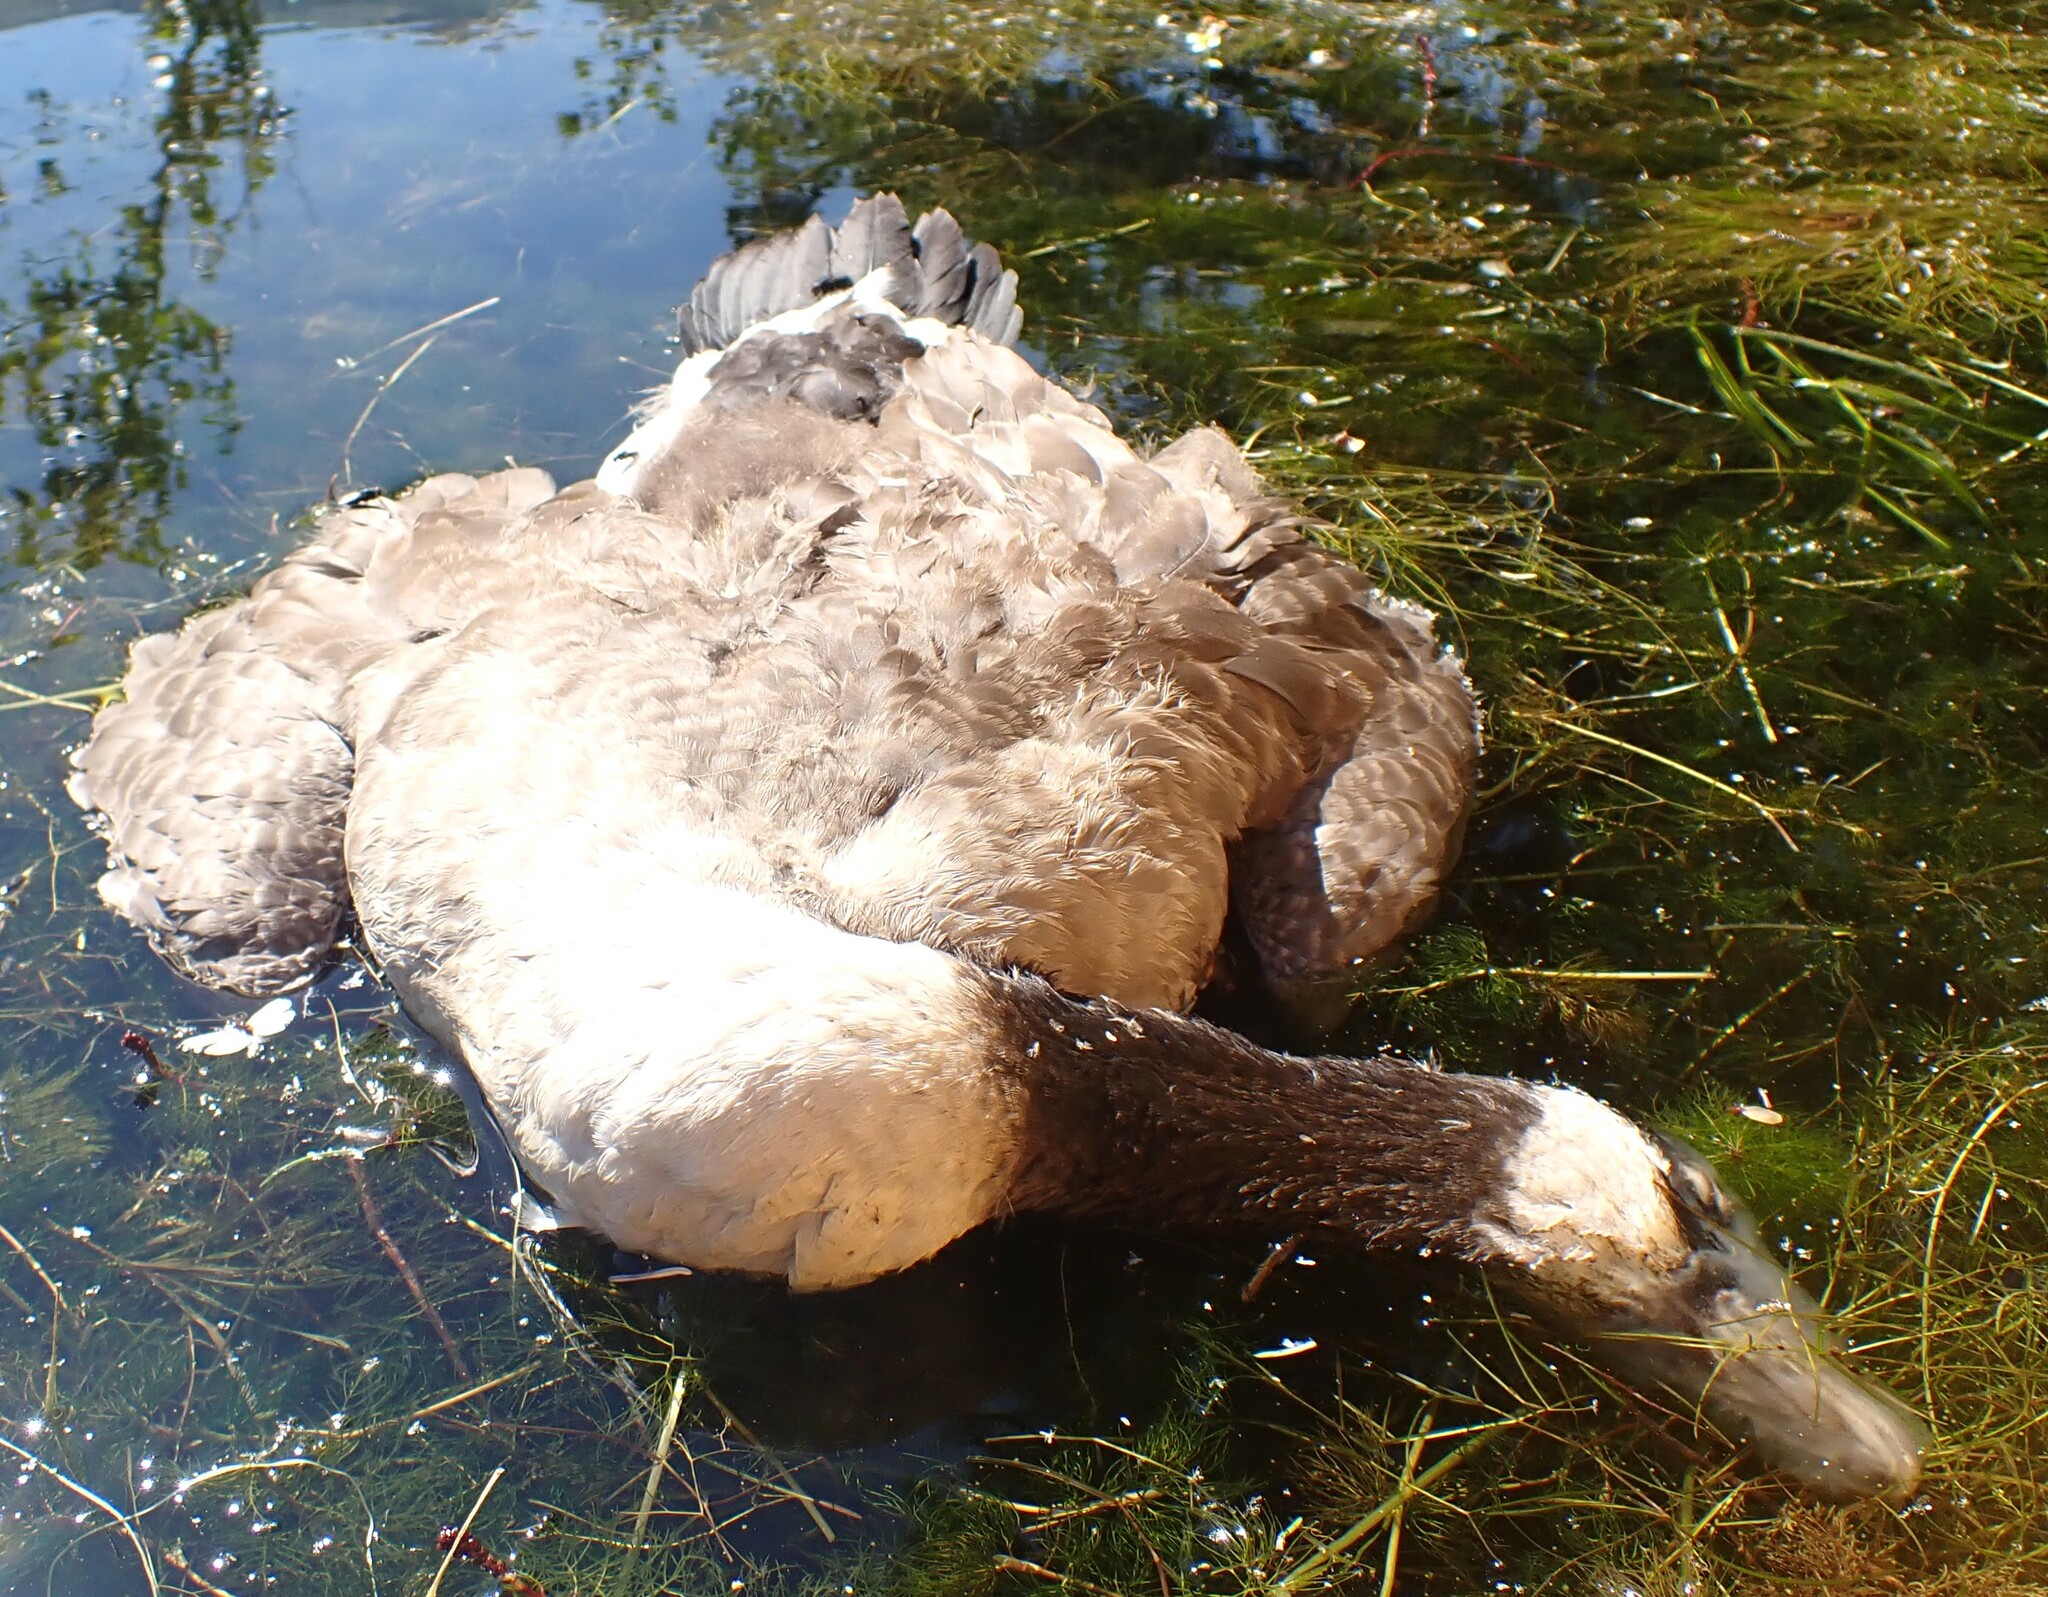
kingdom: Animalia
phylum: Chordata
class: Aves
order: Anseriformes
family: Anatidae
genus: Branta
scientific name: Branta canadensis
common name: Canada goose
